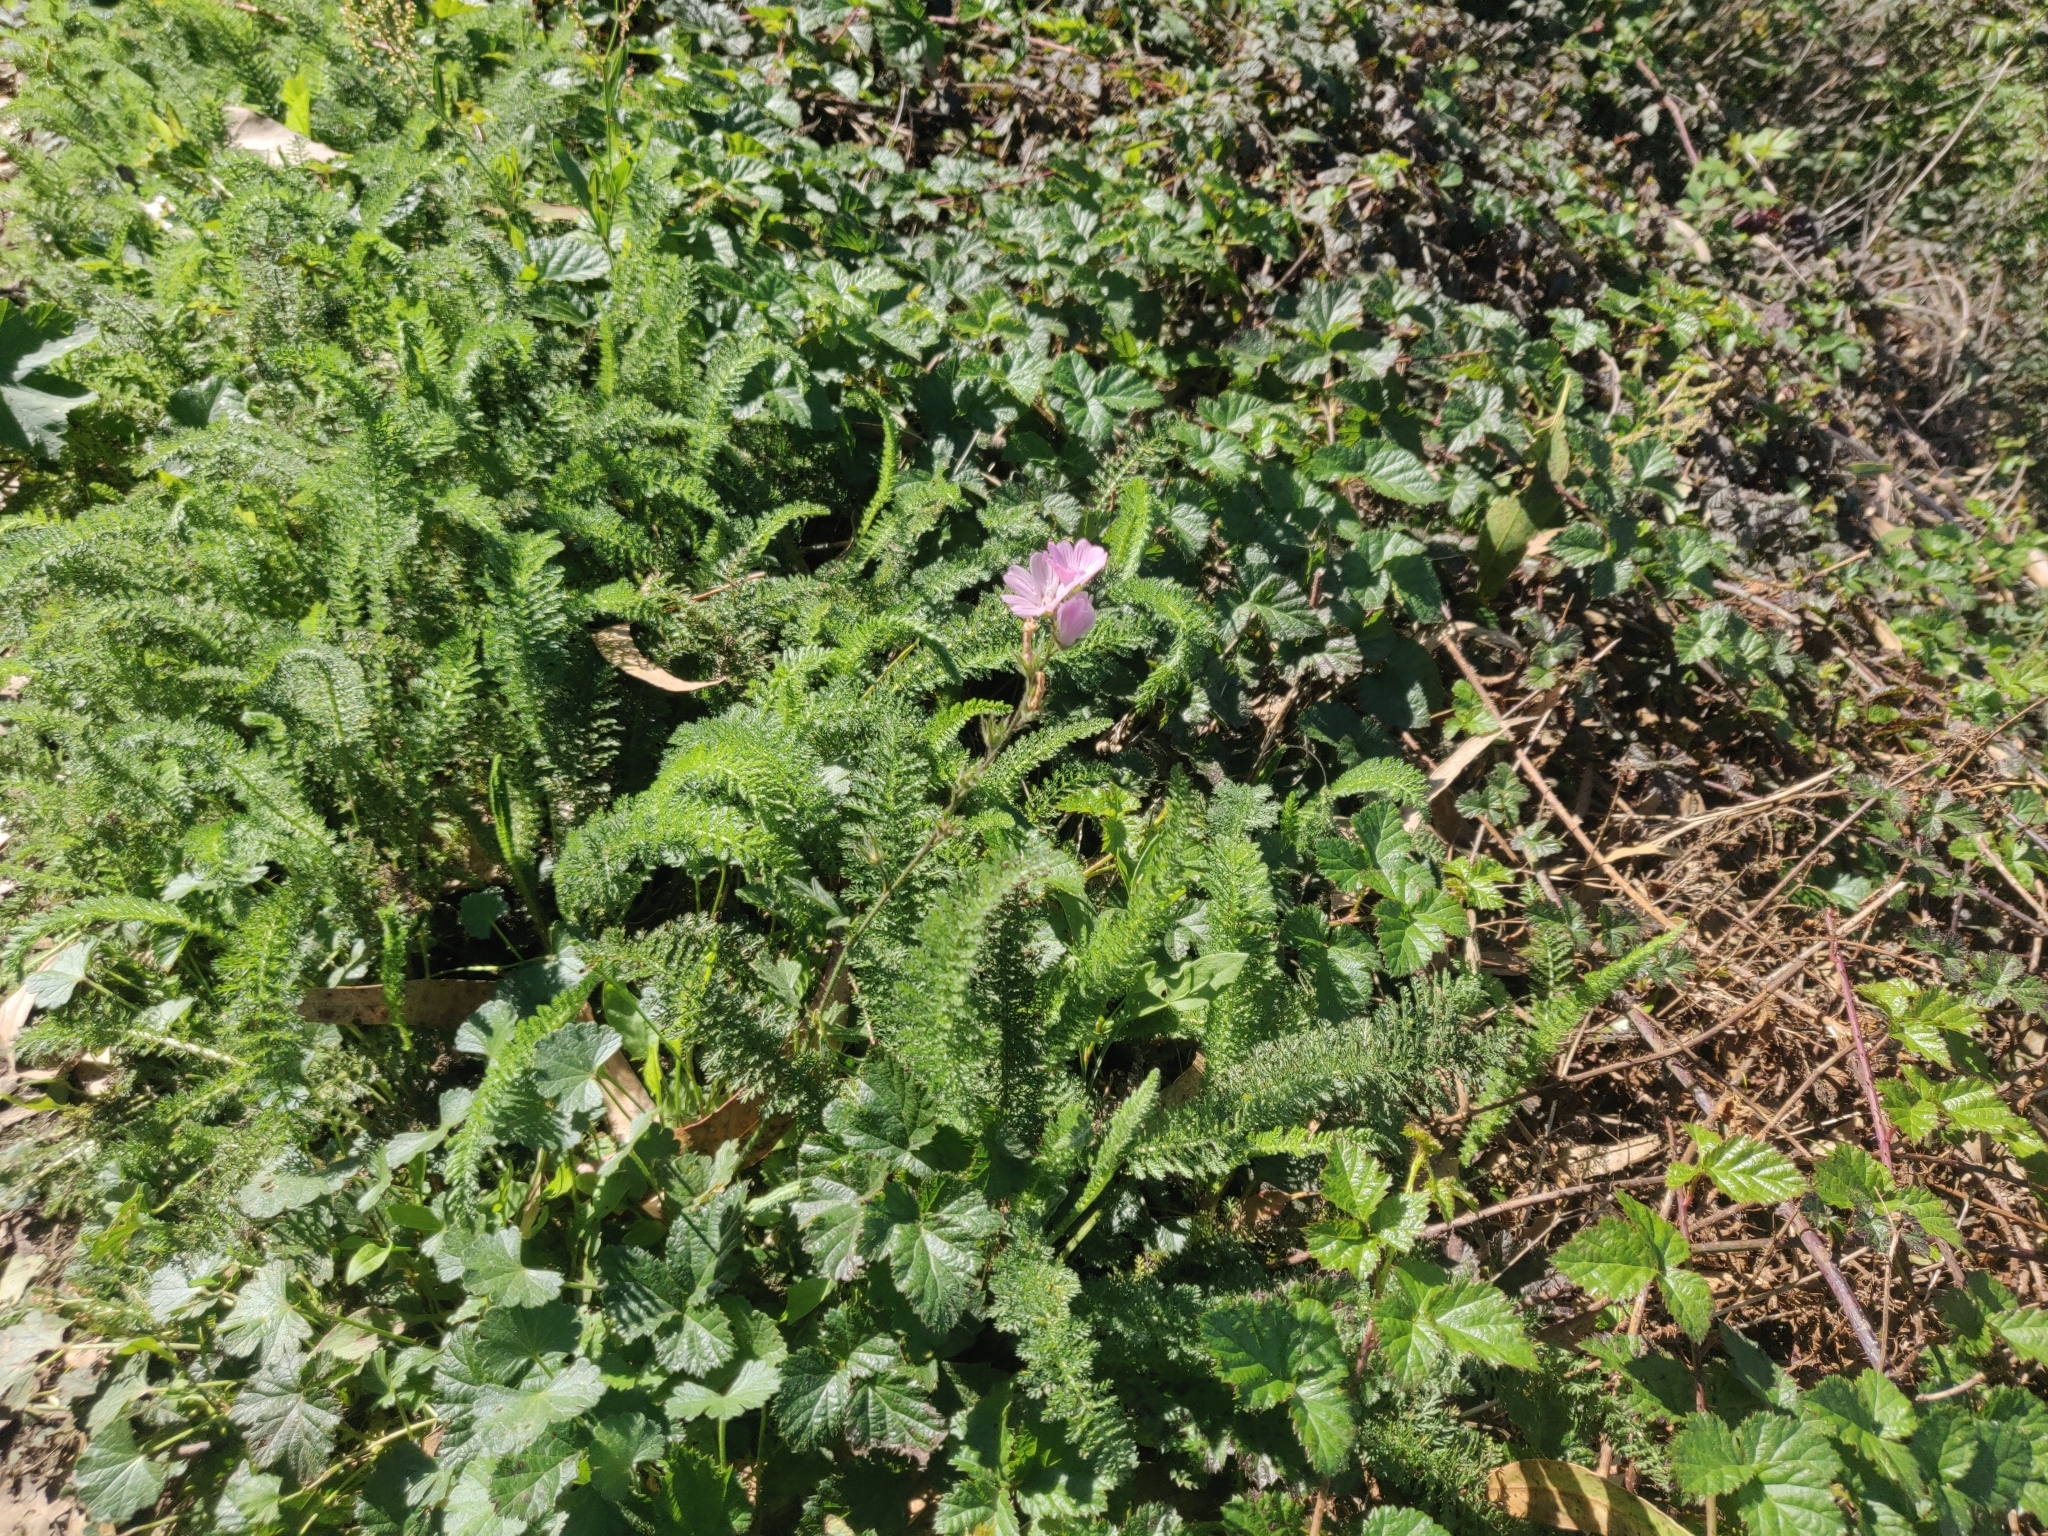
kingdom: Plantae
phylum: Tracheophyta
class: Magnoliopsida
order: Malvales
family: Malvaceae
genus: Sidalcea
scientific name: Sidalcea malviflora
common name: Greek mallow
